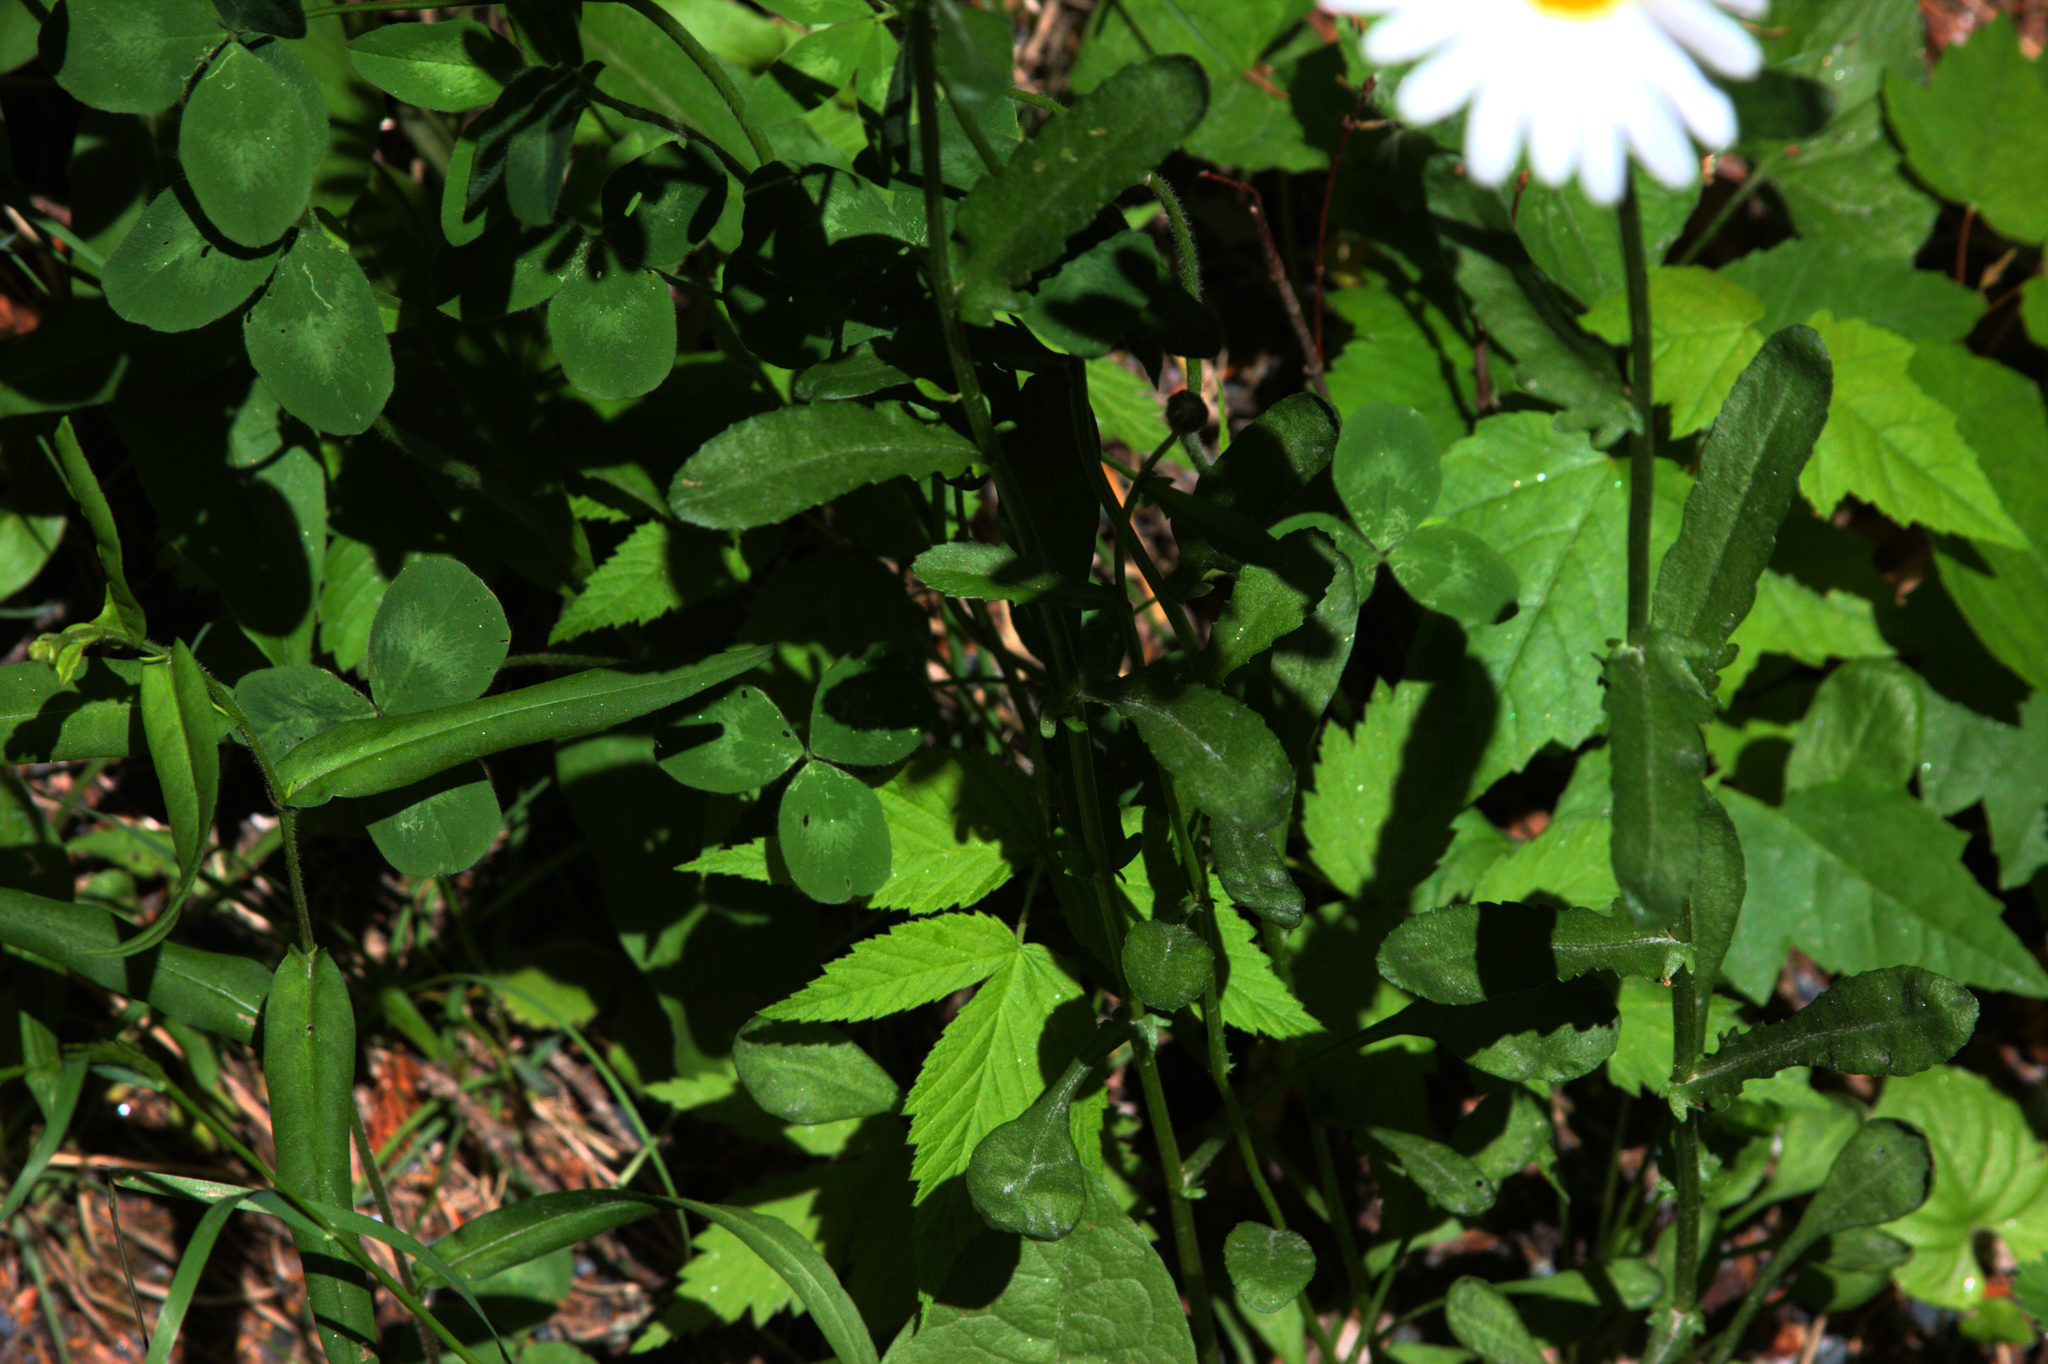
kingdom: Plantae
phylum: Tracheophyta
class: Magnoliopsida
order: Asterales
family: Asteraceae
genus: Leucanthemum
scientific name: Leucanthemum vulgare
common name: Oxeye daisy
